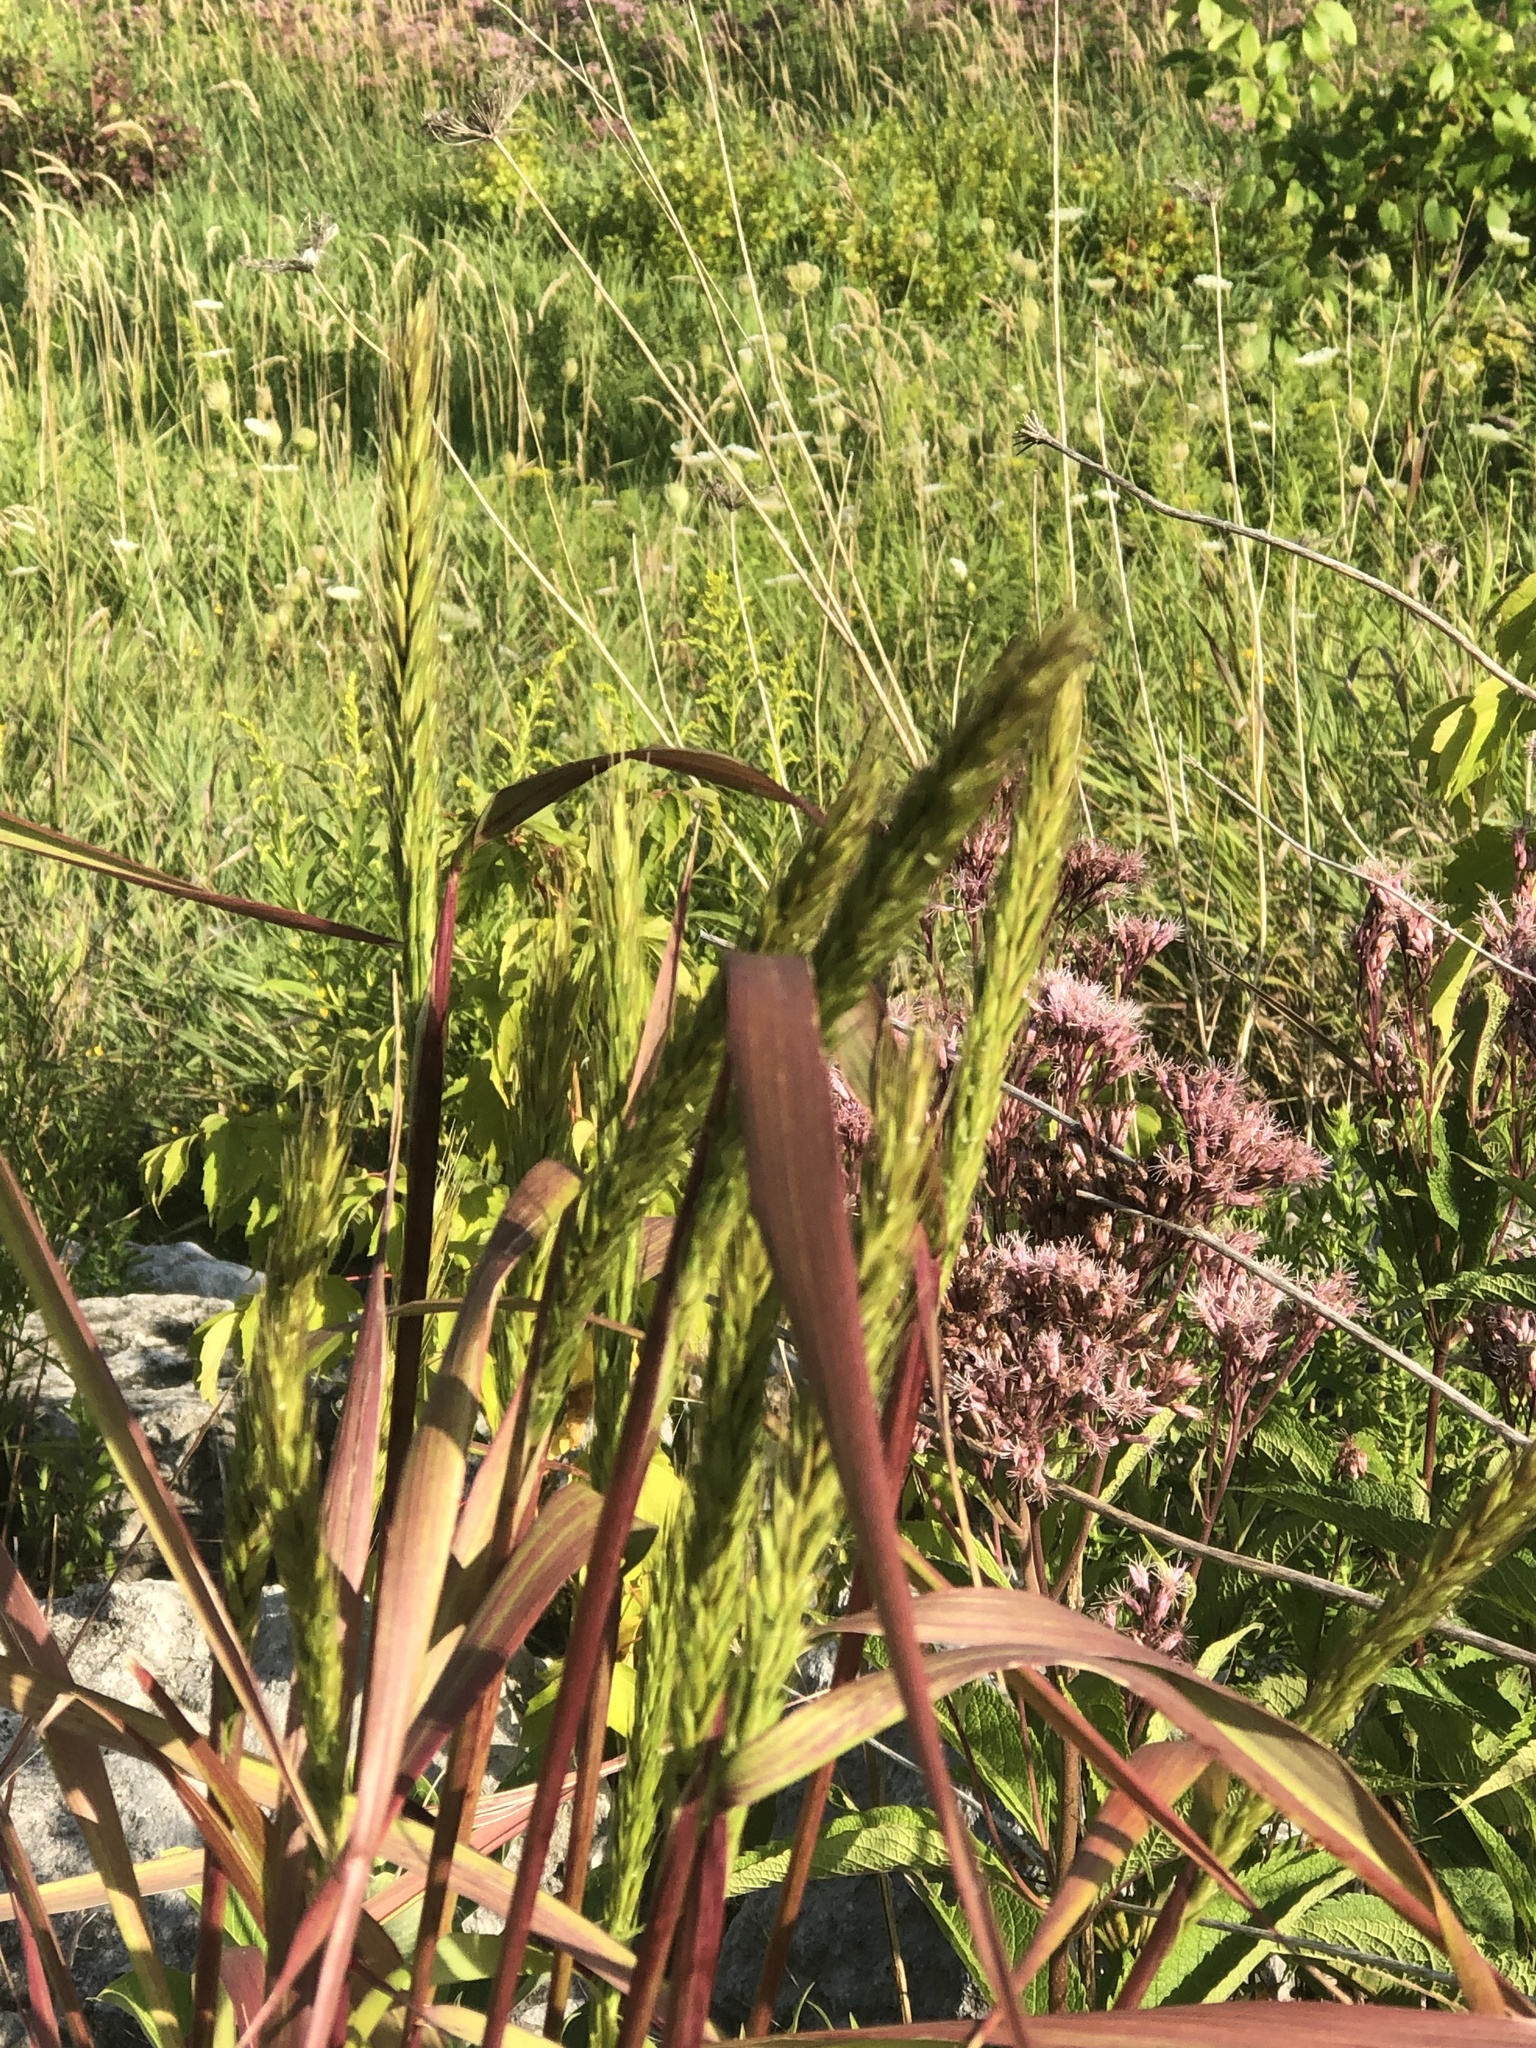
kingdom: Plantae
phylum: Tracheophyta
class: Liliopsida
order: Poales
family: Poaceae
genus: Elymus
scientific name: Elymus virginicus
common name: Common eastern wildrye
